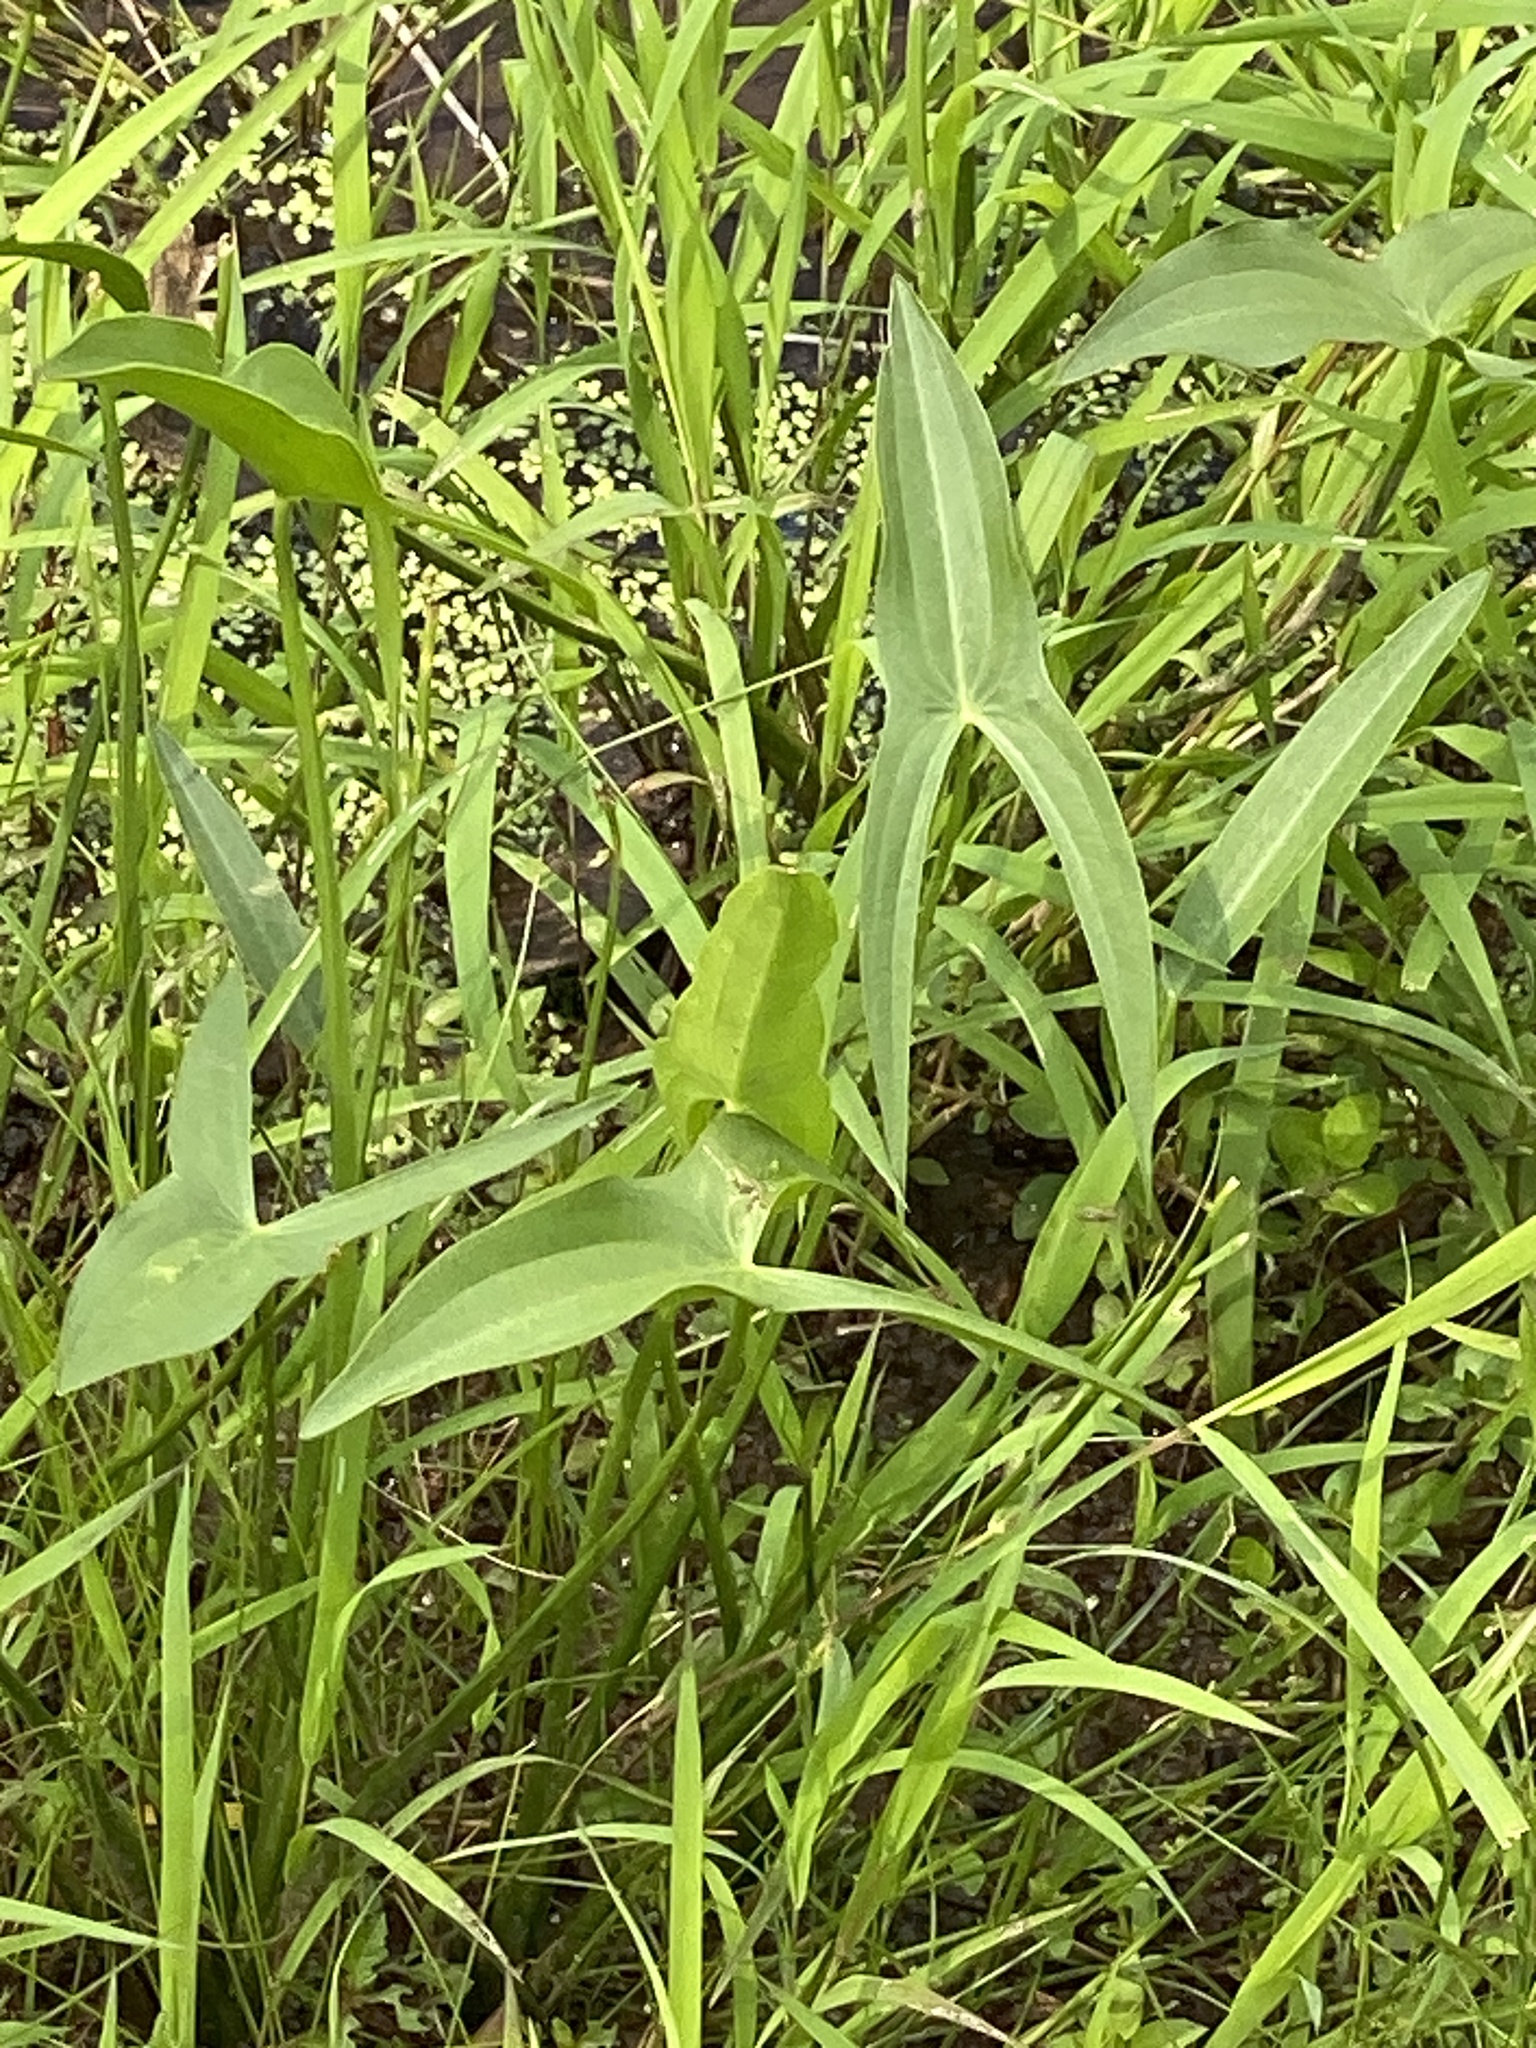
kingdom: Plantae
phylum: Tracheophyta
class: Liliopsida
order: Alismatales
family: Alismataceae
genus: Sagittaria
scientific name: Sagittaria latifolia
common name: Duck-potato
